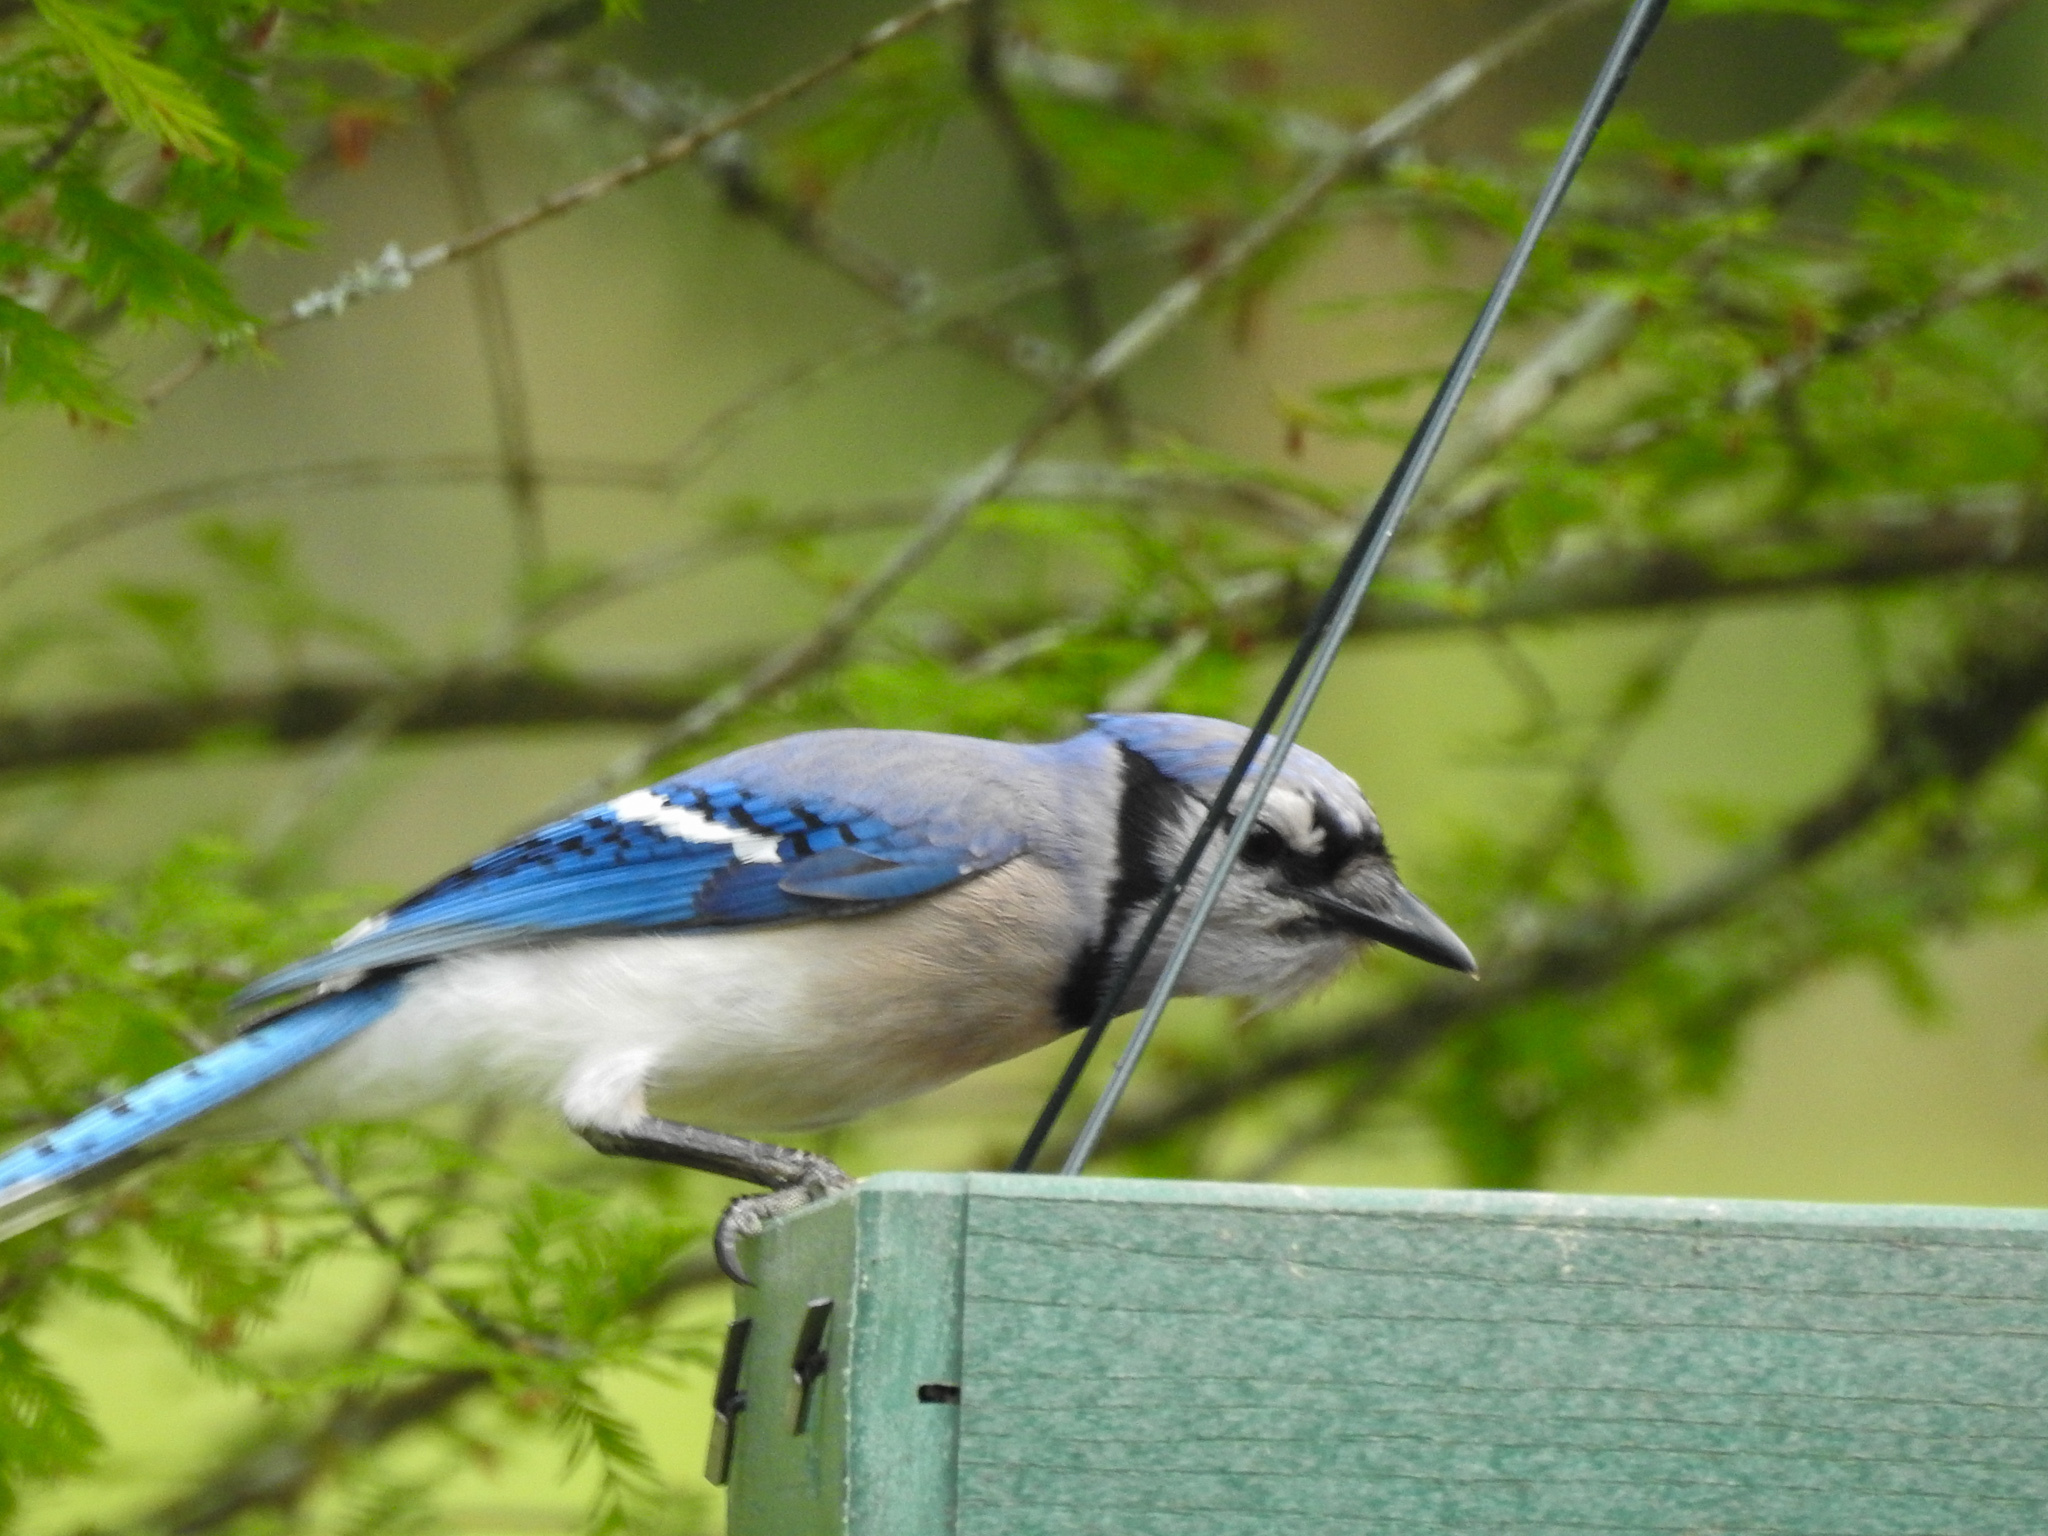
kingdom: Animalia
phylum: Chordata
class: Aves
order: Passeriformes
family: Corvidae
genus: Cyanocitta
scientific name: Cyanocitta cristata
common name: Blue jay
